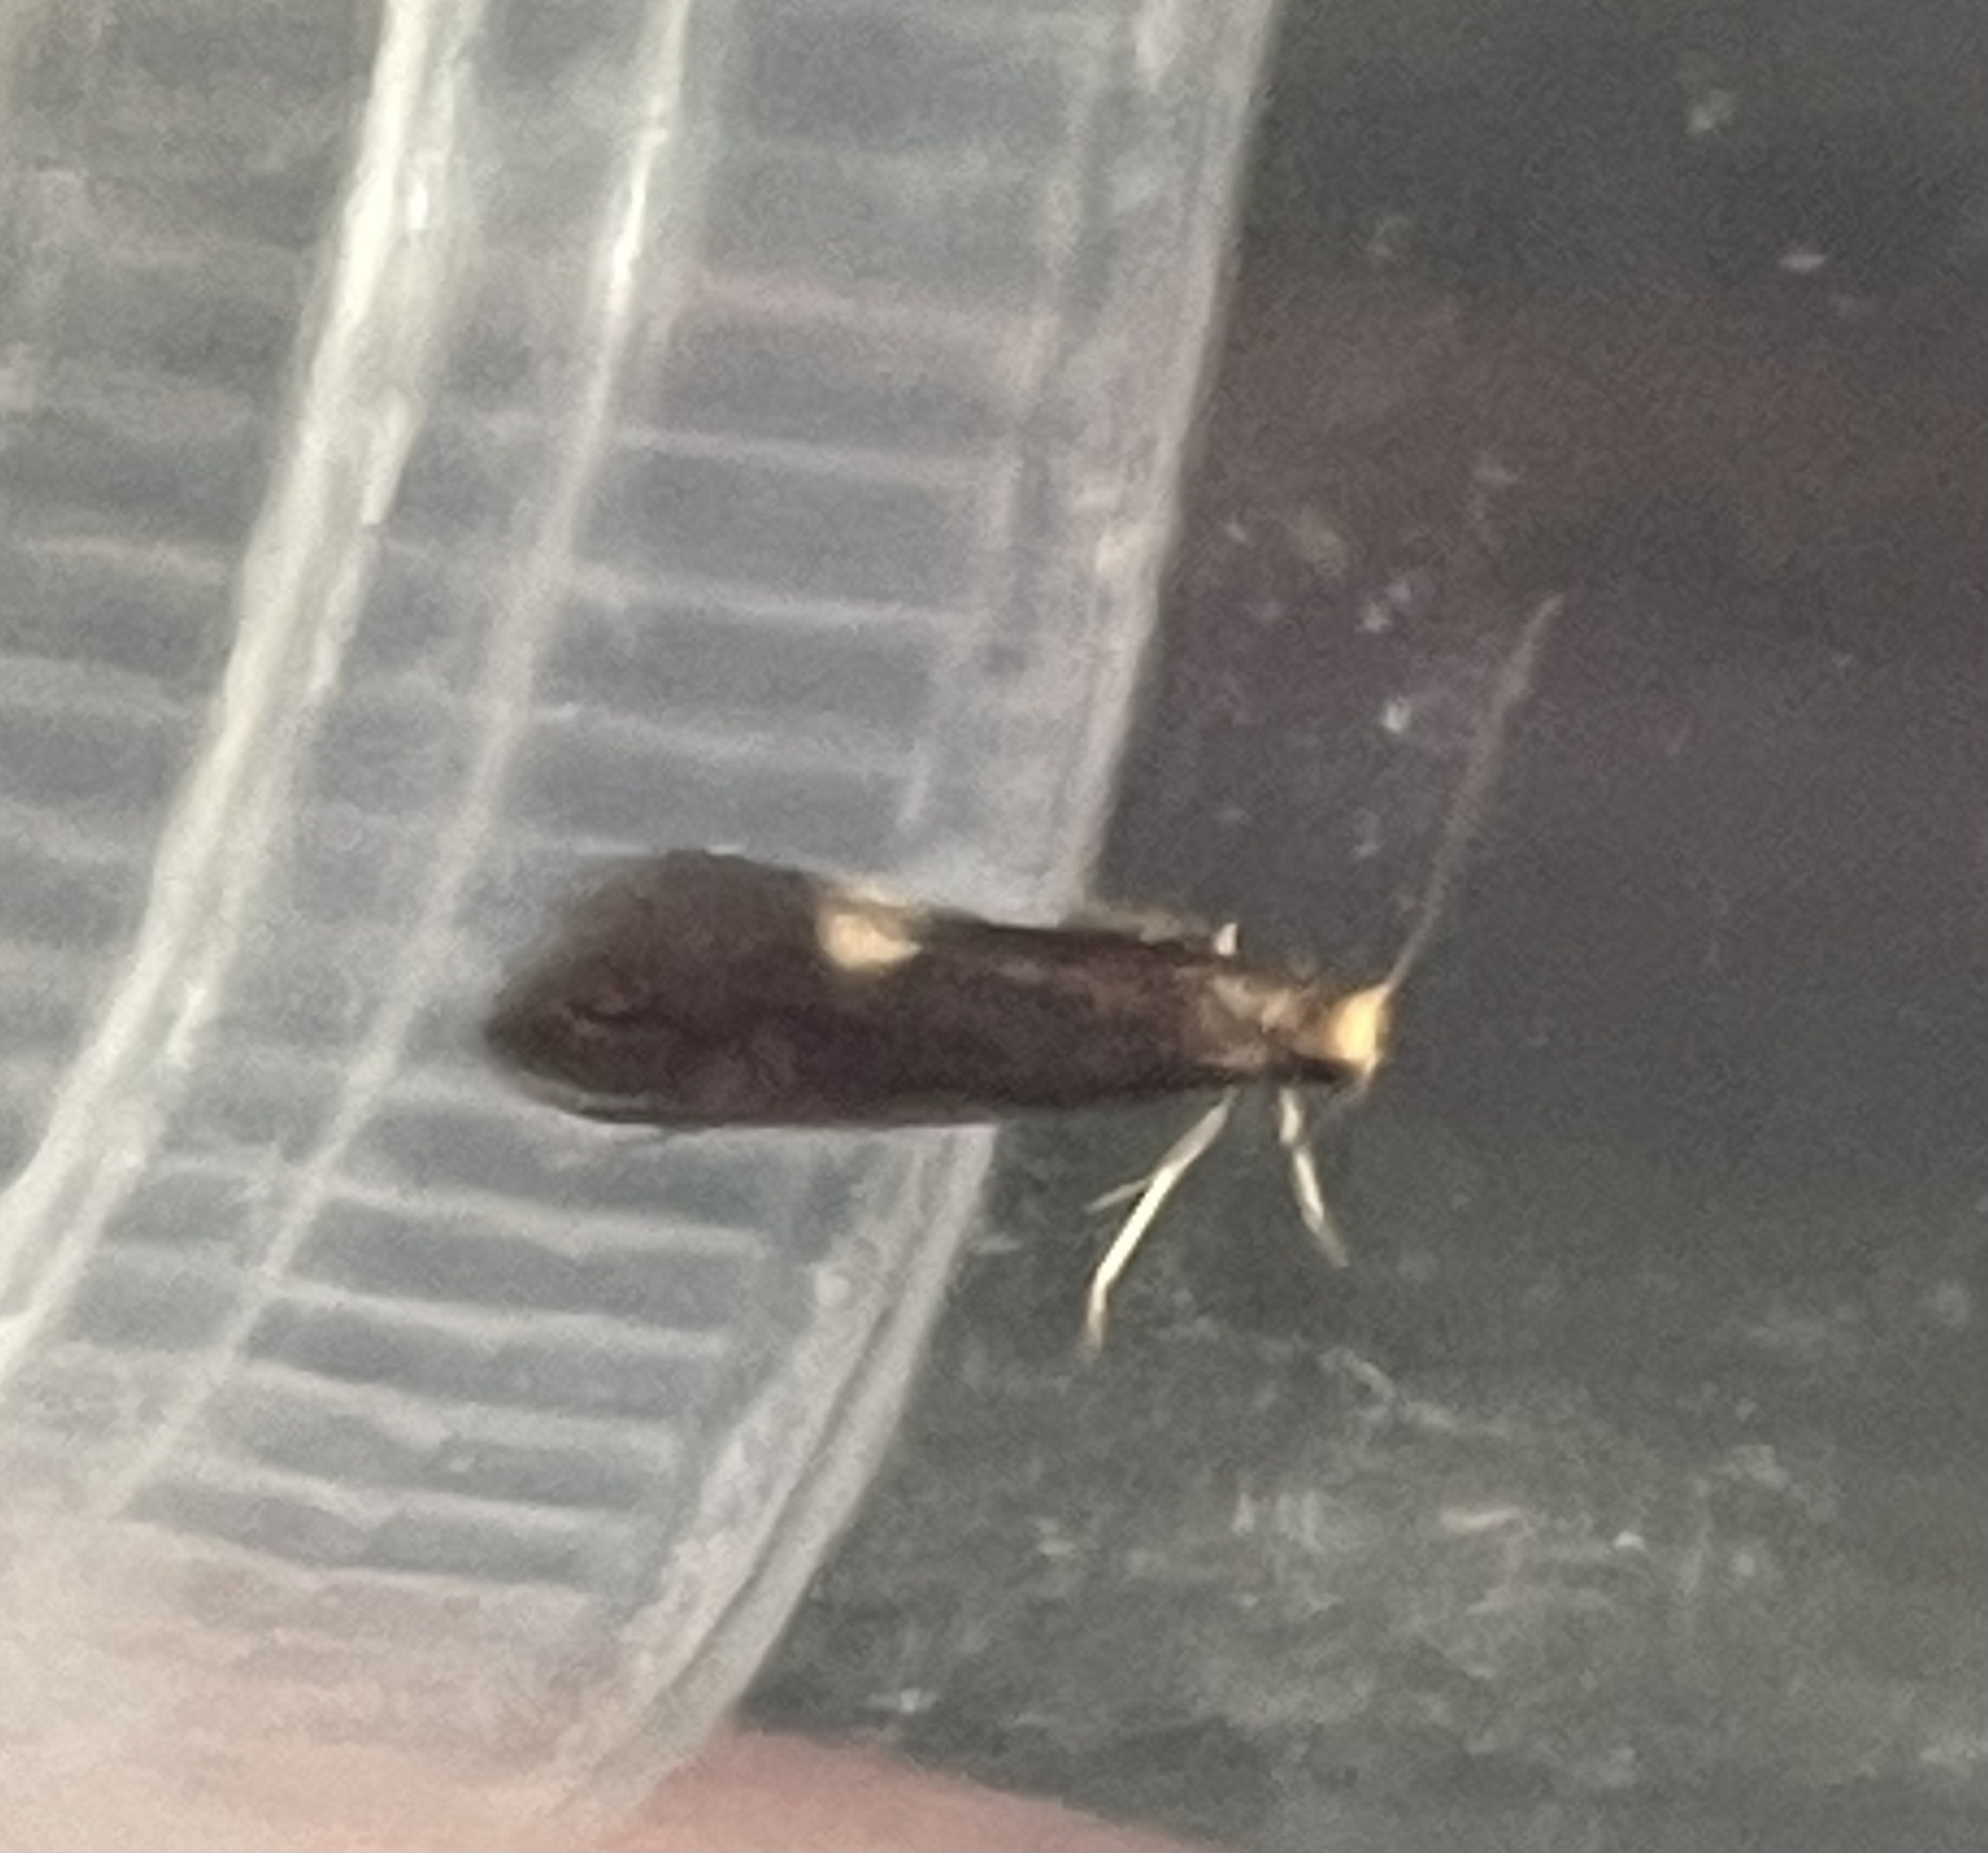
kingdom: Animalia
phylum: Arthropoda
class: Insecta
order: Lepidoptera
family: Tineidae
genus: Psychoides
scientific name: Psychoides filicivora
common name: Fern smut
